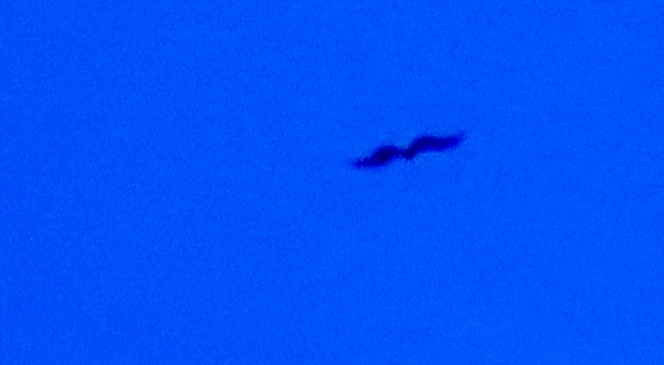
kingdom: Animalia
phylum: Chordata
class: Aves
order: Accipitriformes
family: Accipitridae
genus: Haliaeetus
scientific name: Haliaeetus vocifer
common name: African fish eagle
